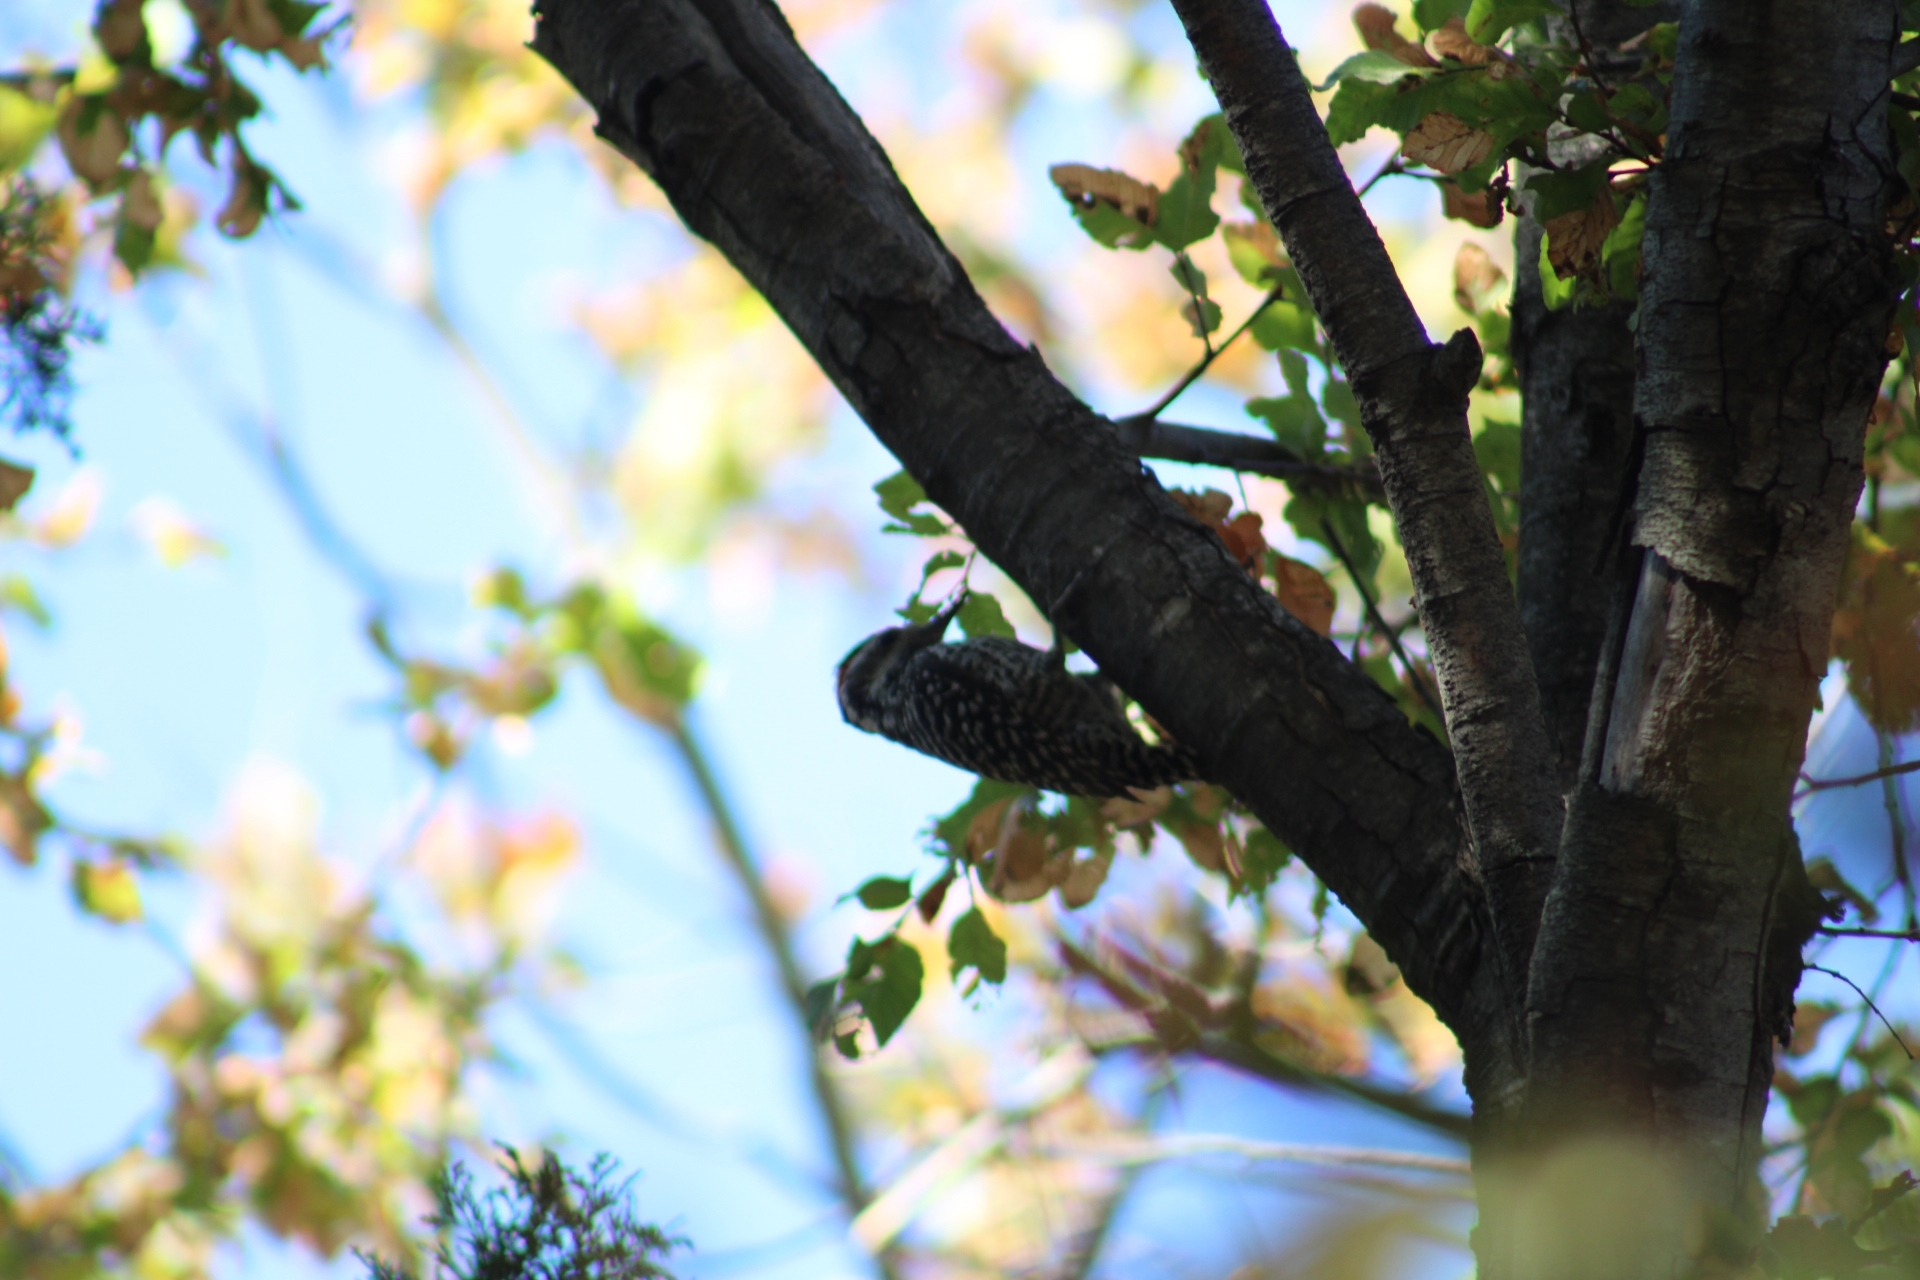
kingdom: Animalia
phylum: Chordata
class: Aves
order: Piciformes
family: Picidae
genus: Veniliornis
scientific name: Veniliornis lignarius
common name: Striped woodpecker
